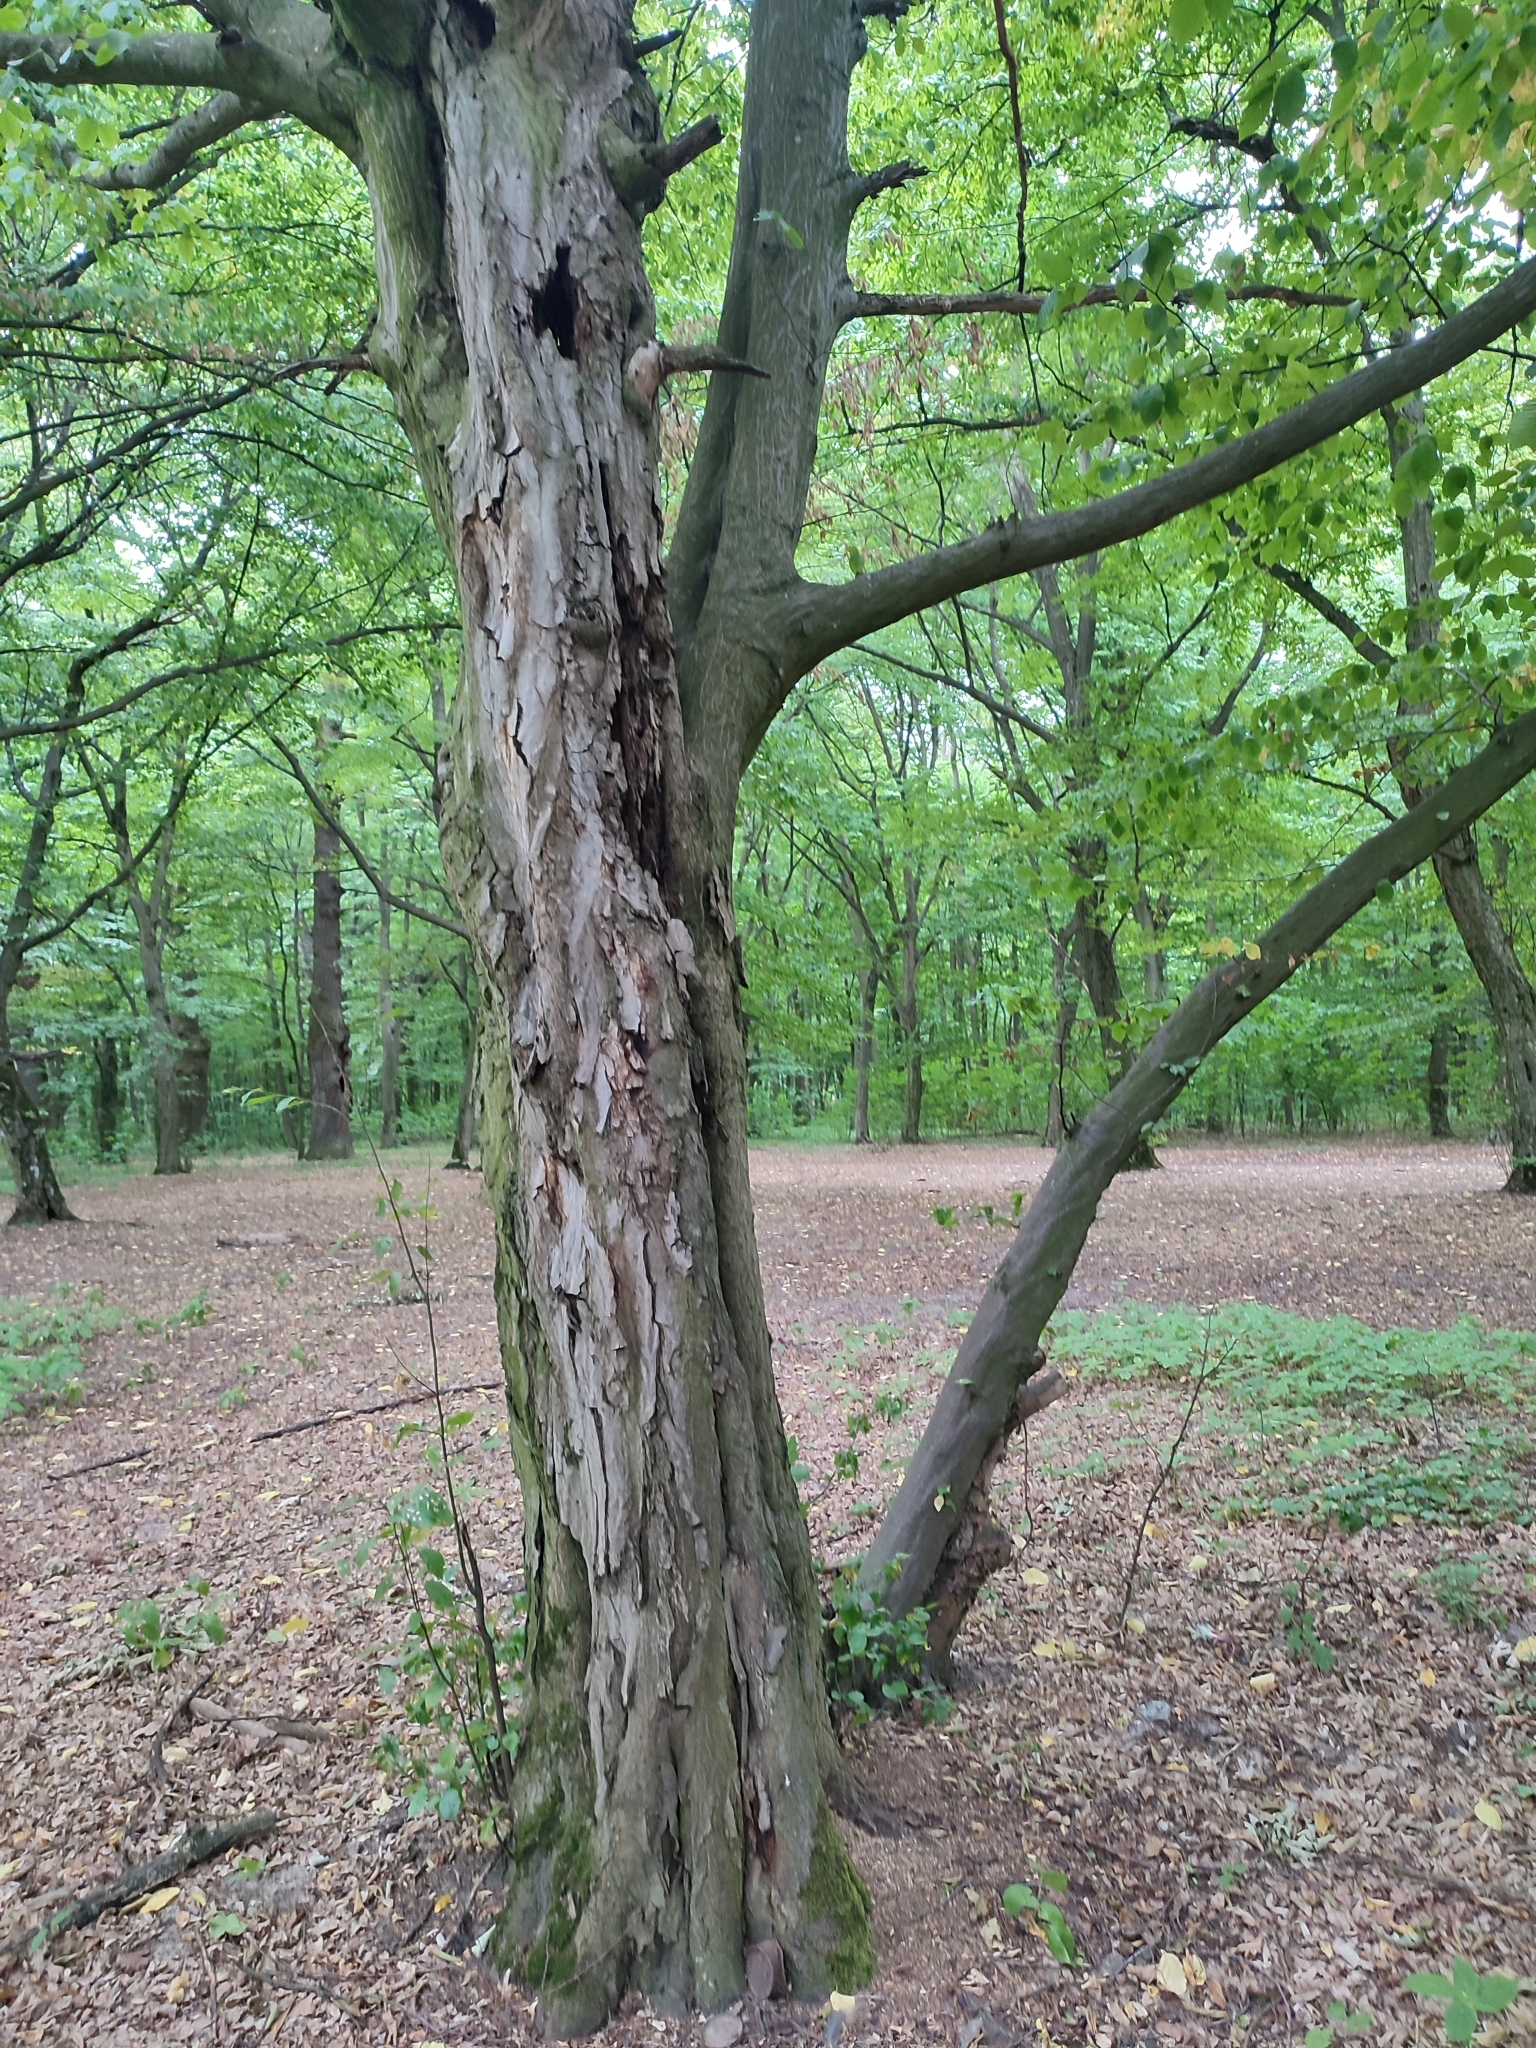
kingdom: Plantae
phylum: Tracheophyta
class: Magnoliopsida
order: Fagales
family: Betulaceae
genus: Carpinus
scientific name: Carpinus betulus
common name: Hornbeam
